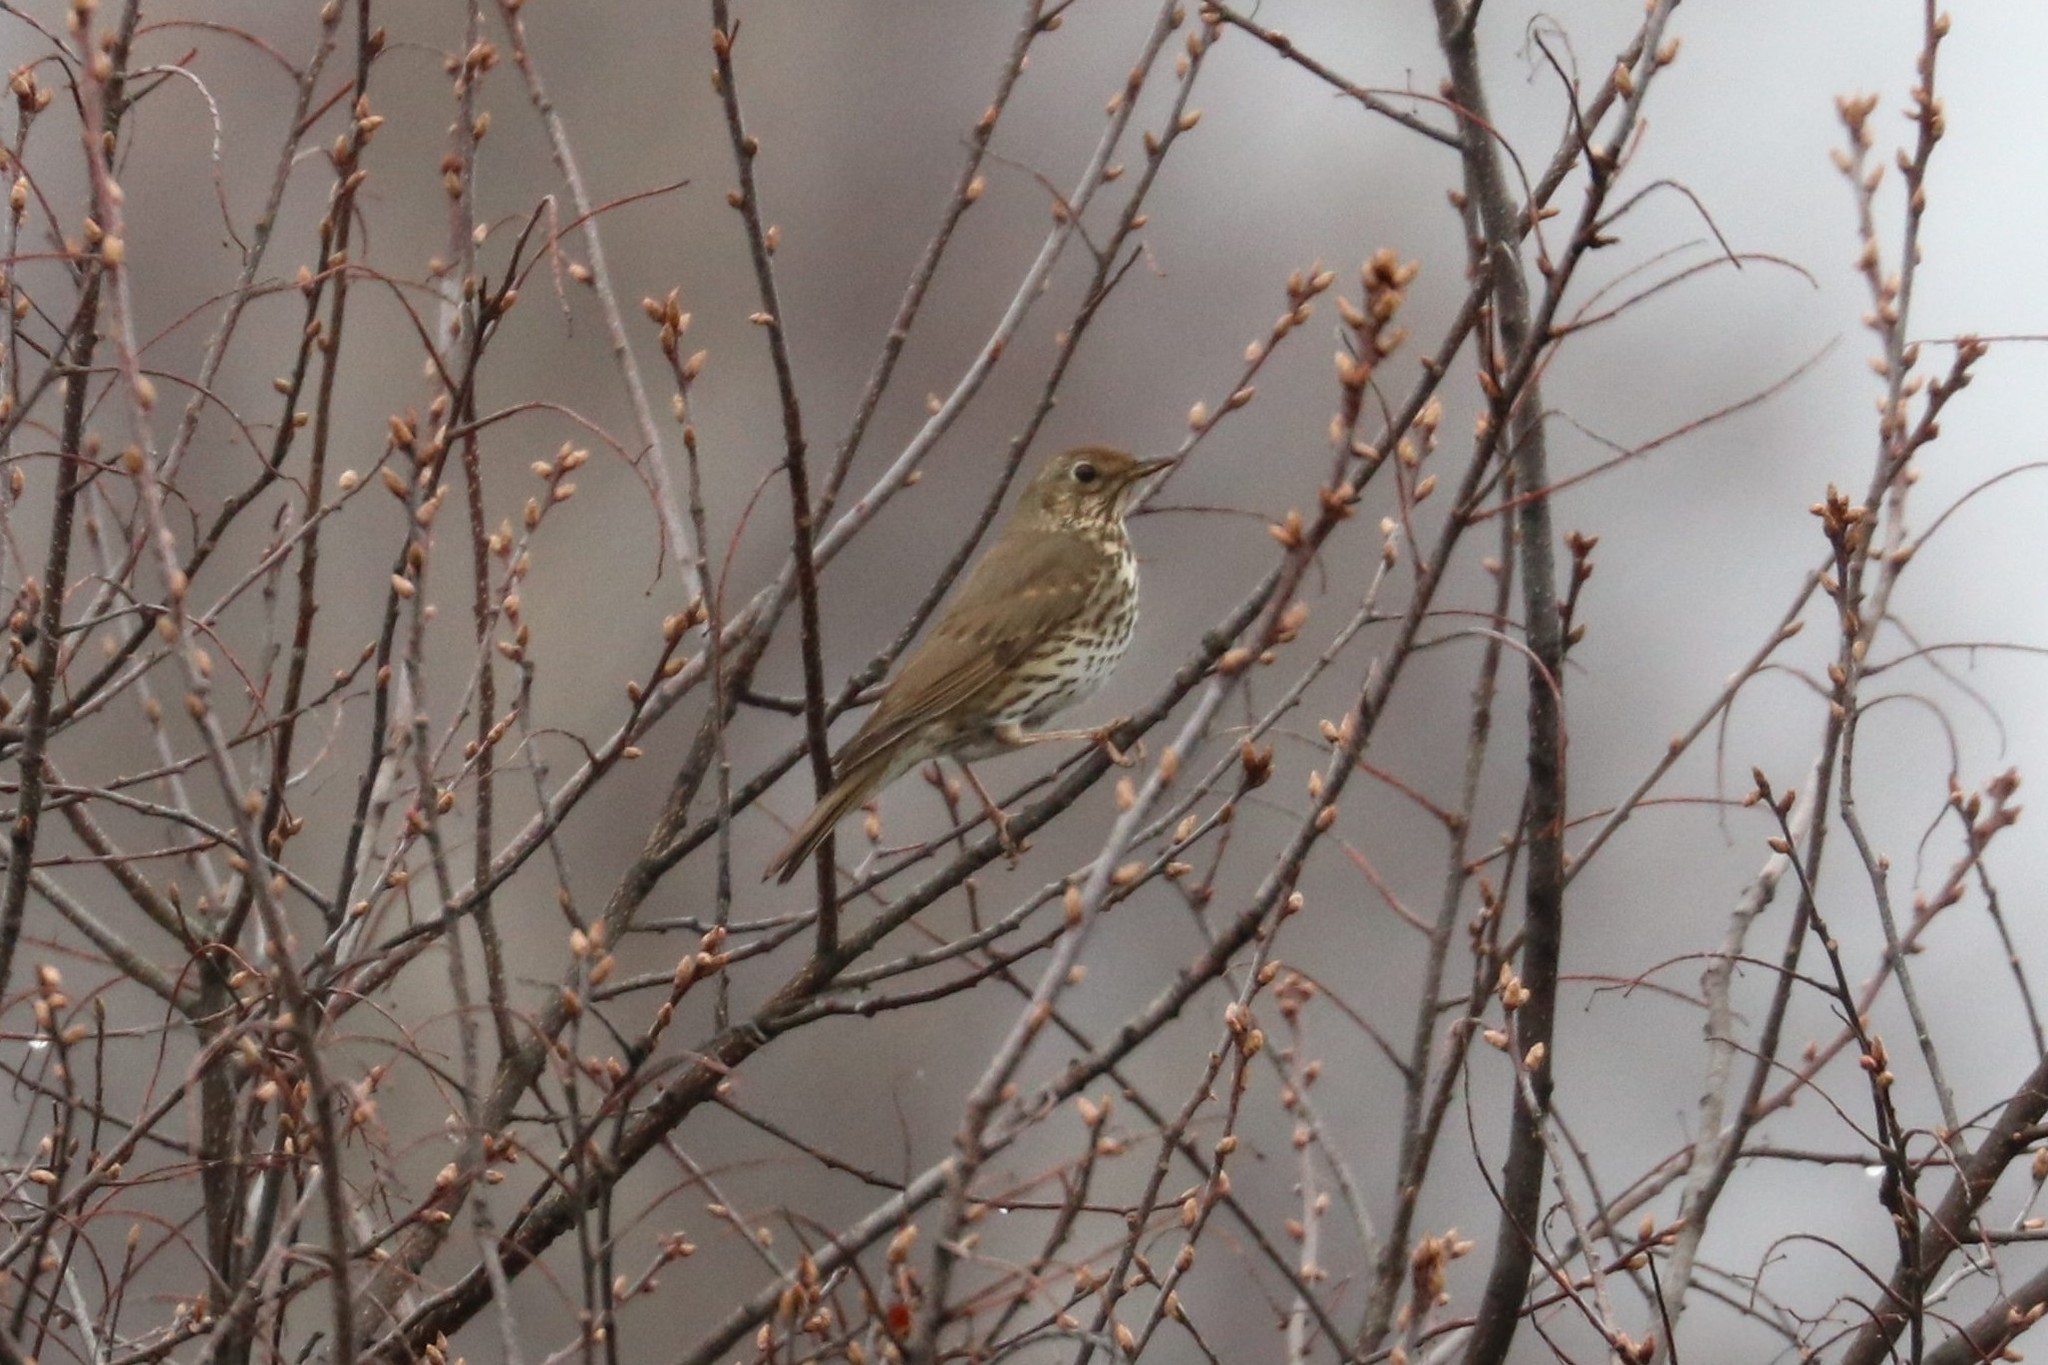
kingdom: Animalia
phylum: Chordata
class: Aves
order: Passeriformes
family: Turdidae
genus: Turdus
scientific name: Turdus philomelos
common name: Song thrush
